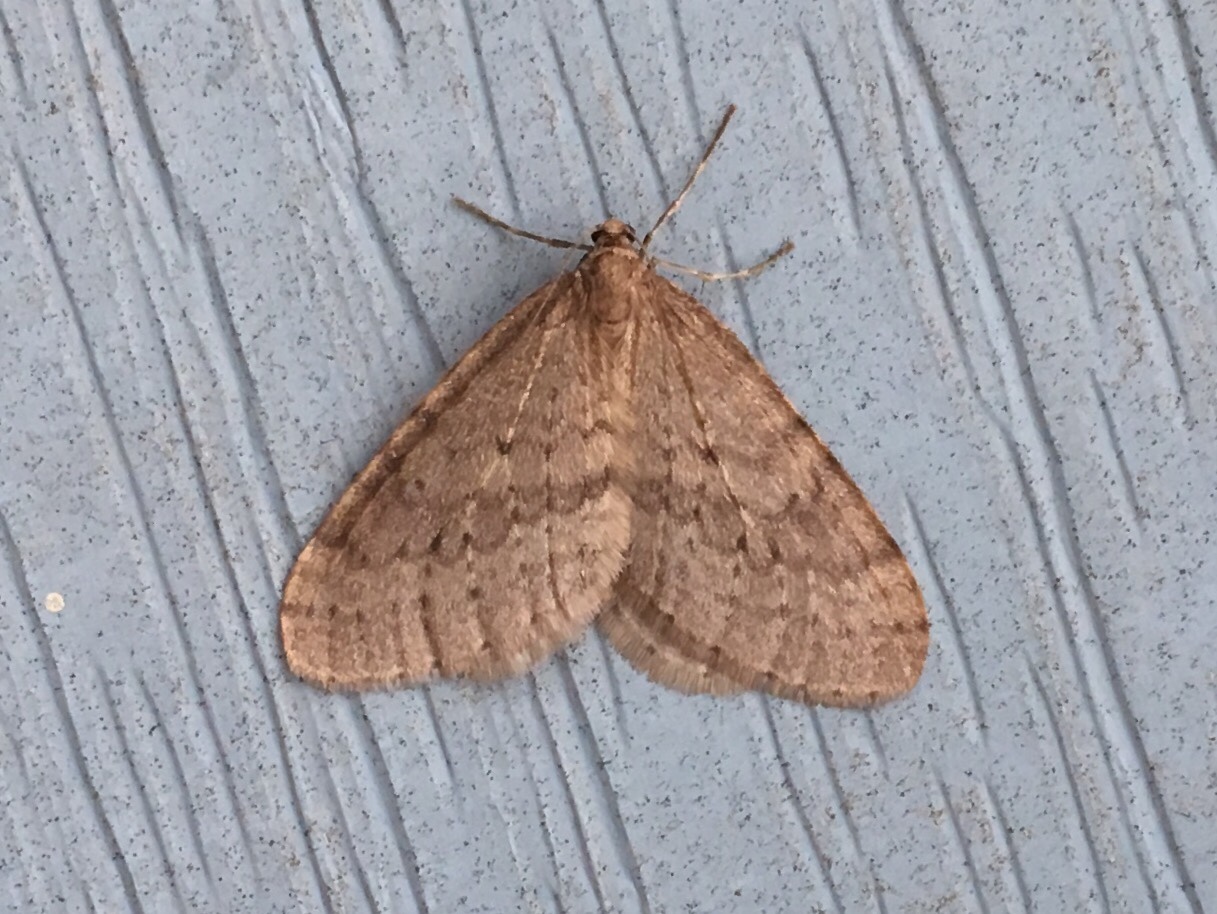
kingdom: Animalia
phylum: Arthropoda
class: Insecta
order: Lepidoptera
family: Geometridae
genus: Operophtera
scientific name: Operophtera bruceata
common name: Bruce spanworm
